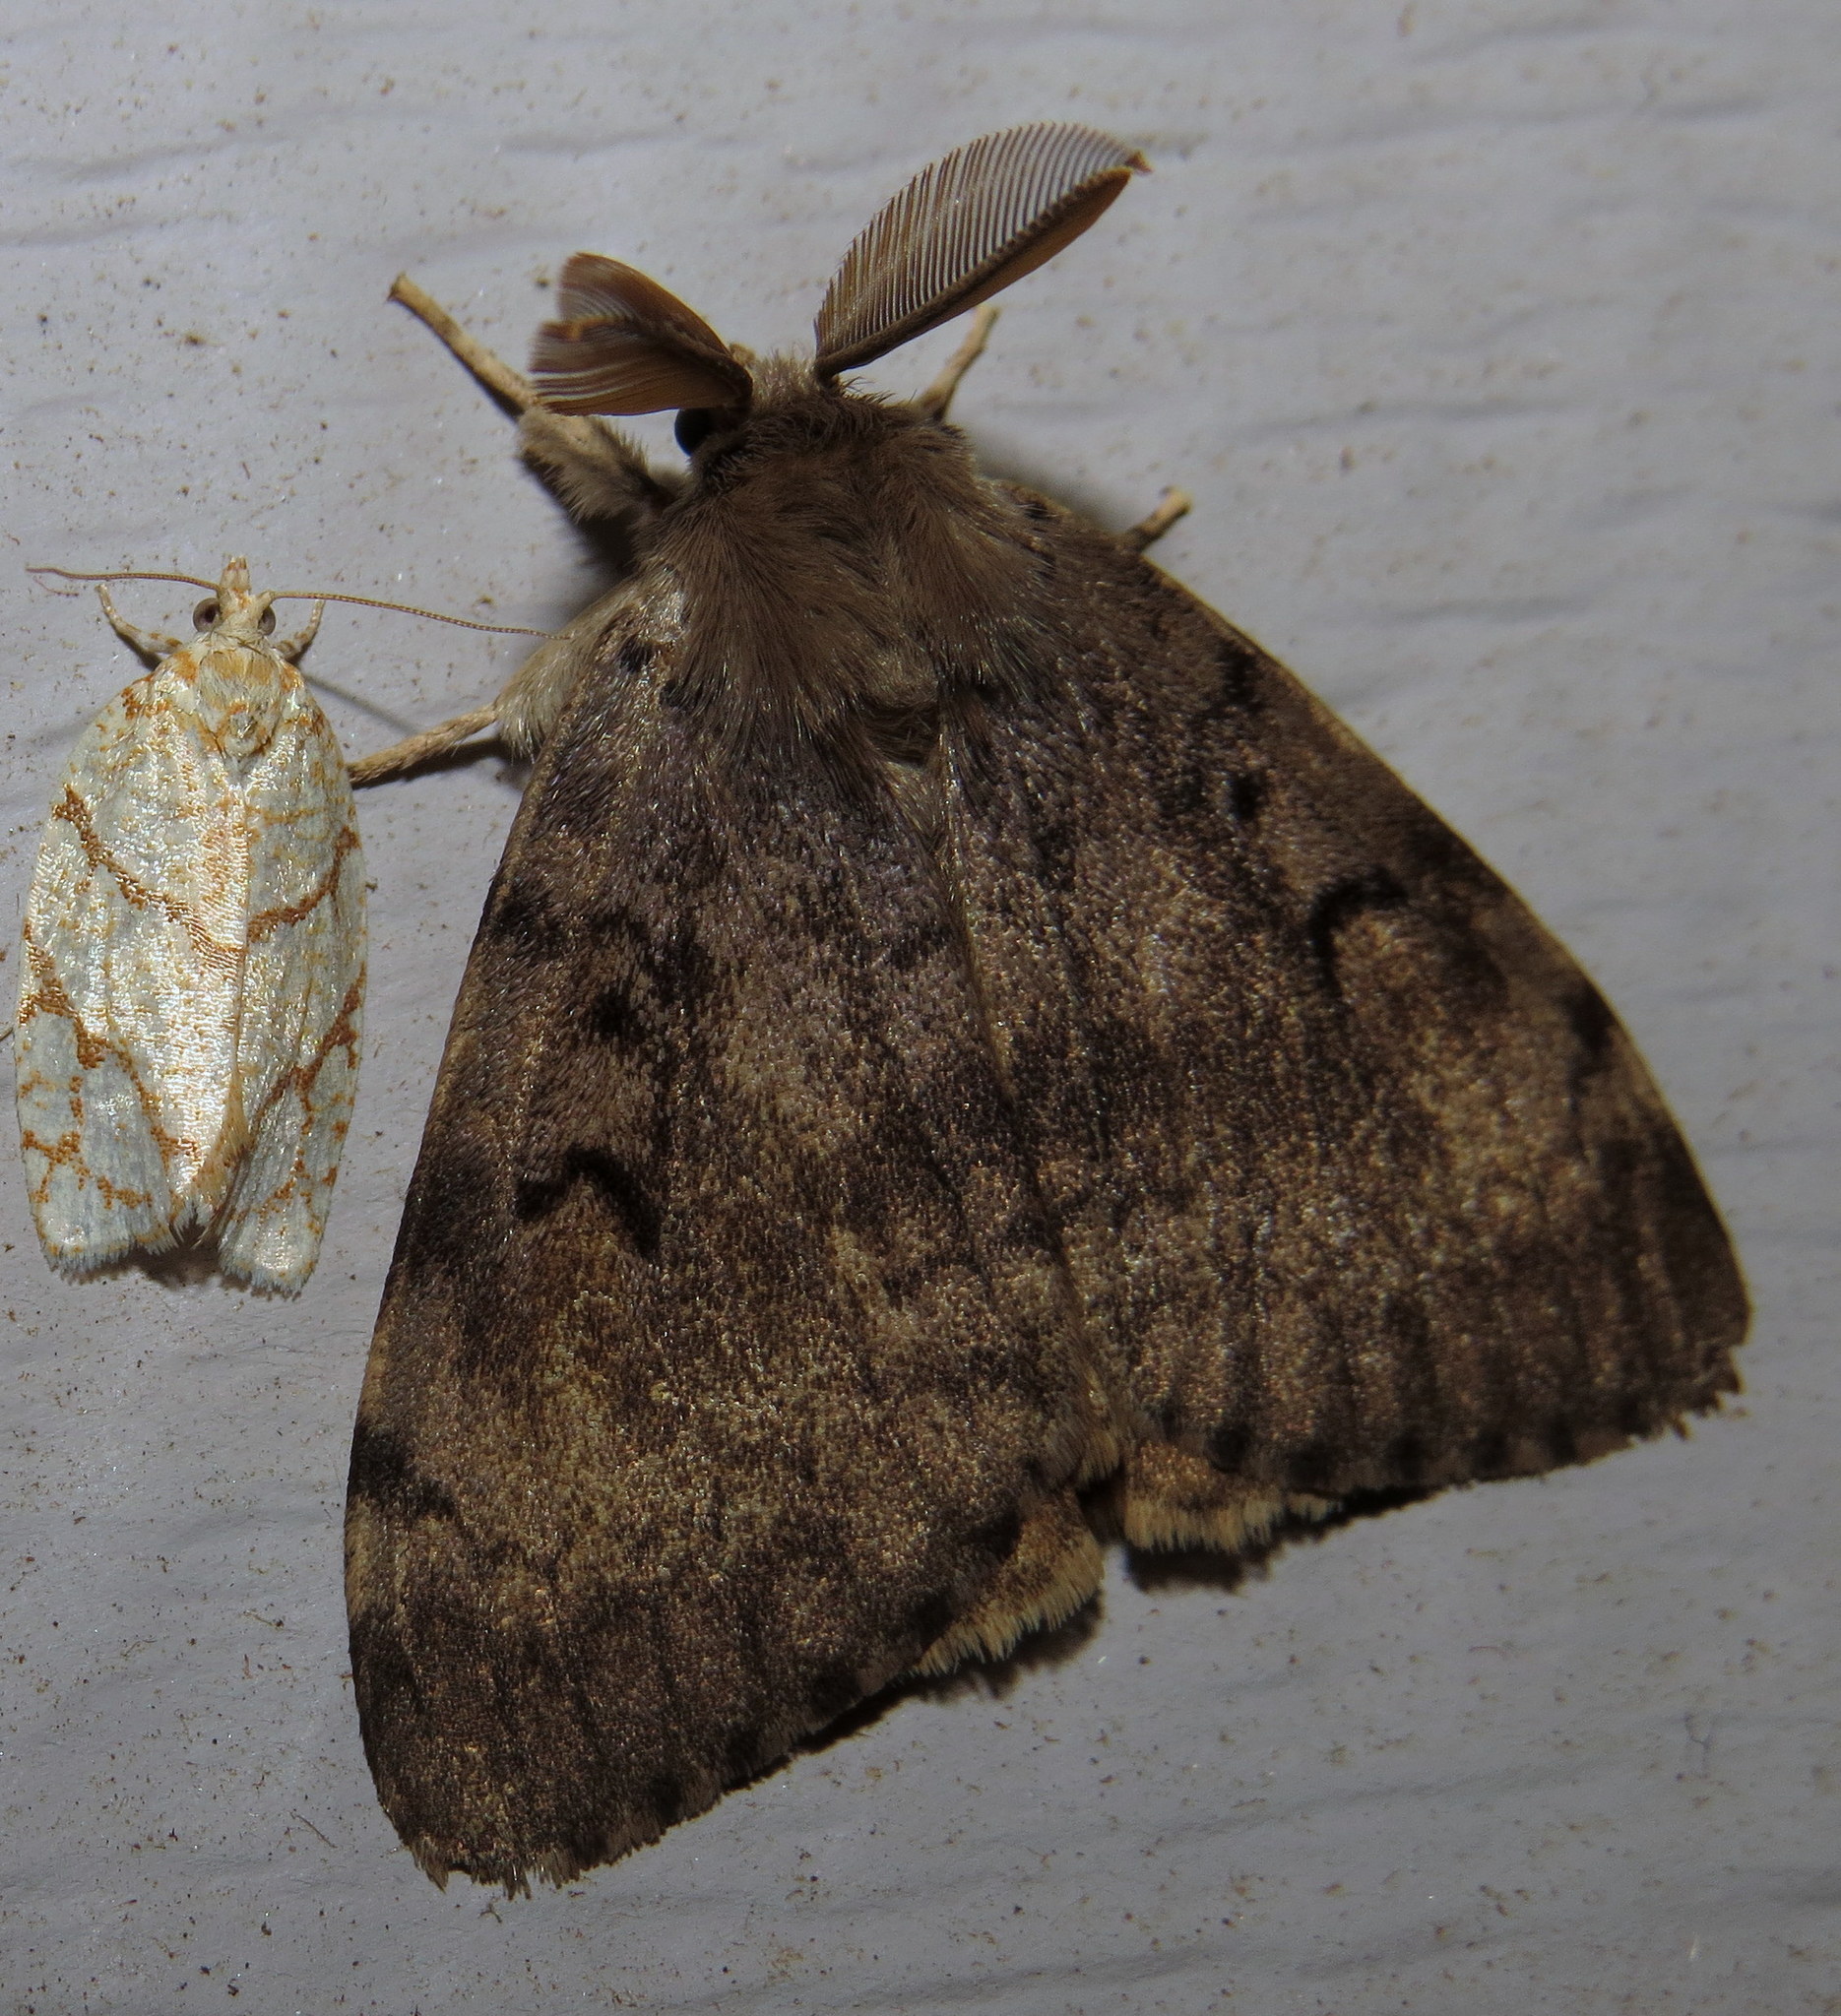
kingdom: Animalia
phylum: Arthropoda
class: Insecta
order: Lepidoptera
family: Erebidae
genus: Lymantria
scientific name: Lymantria dispar
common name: Gypsy moth
